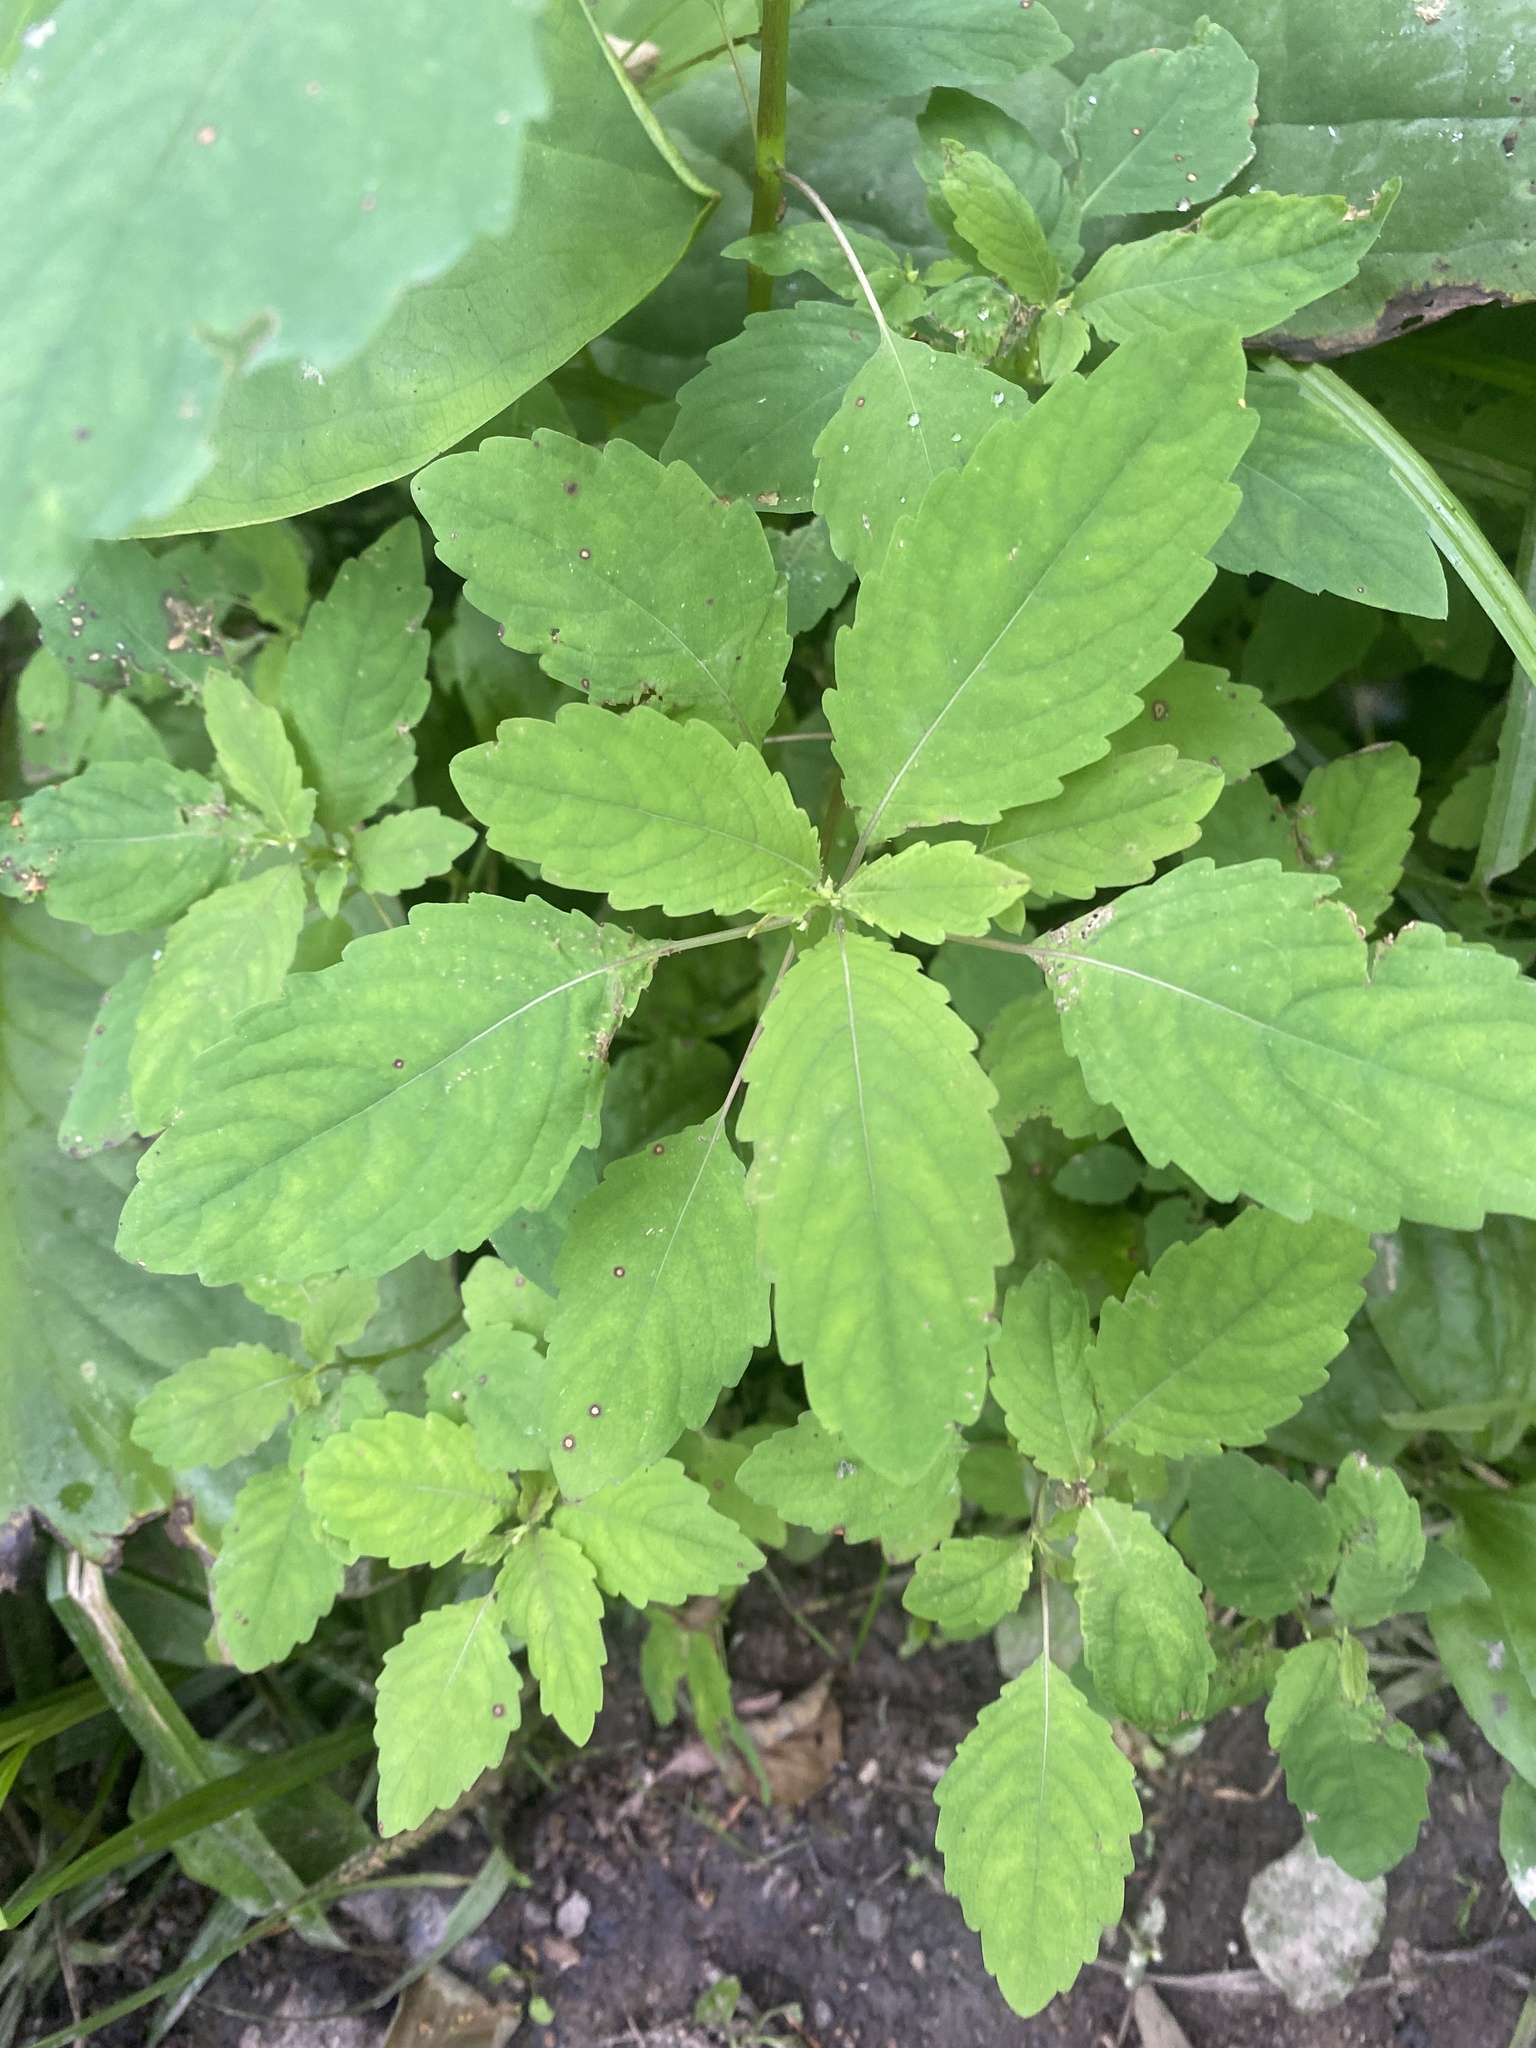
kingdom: Plantae
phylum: Tracheophyta
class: Magnoliopsida
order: Ericales
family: Balsaminaceae
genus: Impatiens
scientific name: Impatiens noli-tangere
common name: Touch-me-not balsam
